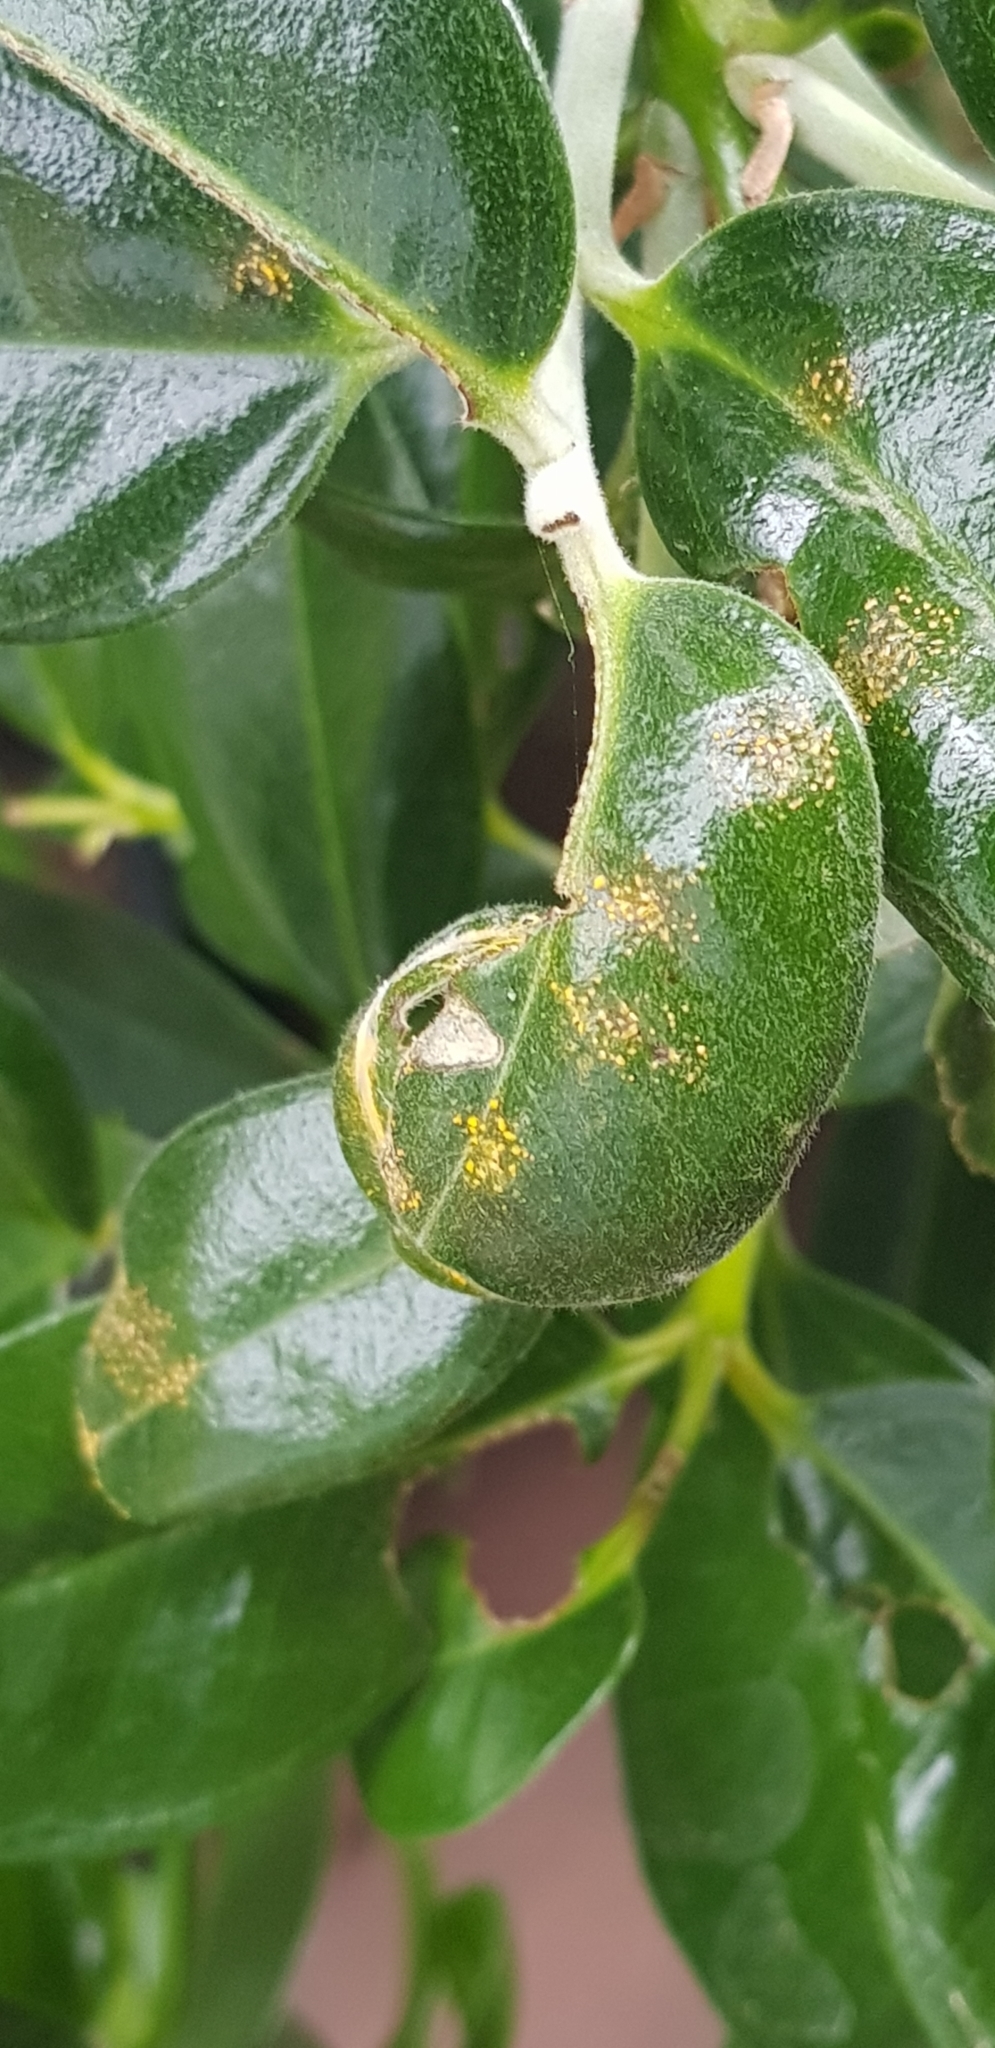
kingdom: Fungi
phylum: Basidiomycota
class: Pucciniomycetes
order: Pucciniales
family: Sphaerophragmiaceae
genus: Austropuccinia
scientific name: Austropuccinia psidii
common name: Myrtle rust
